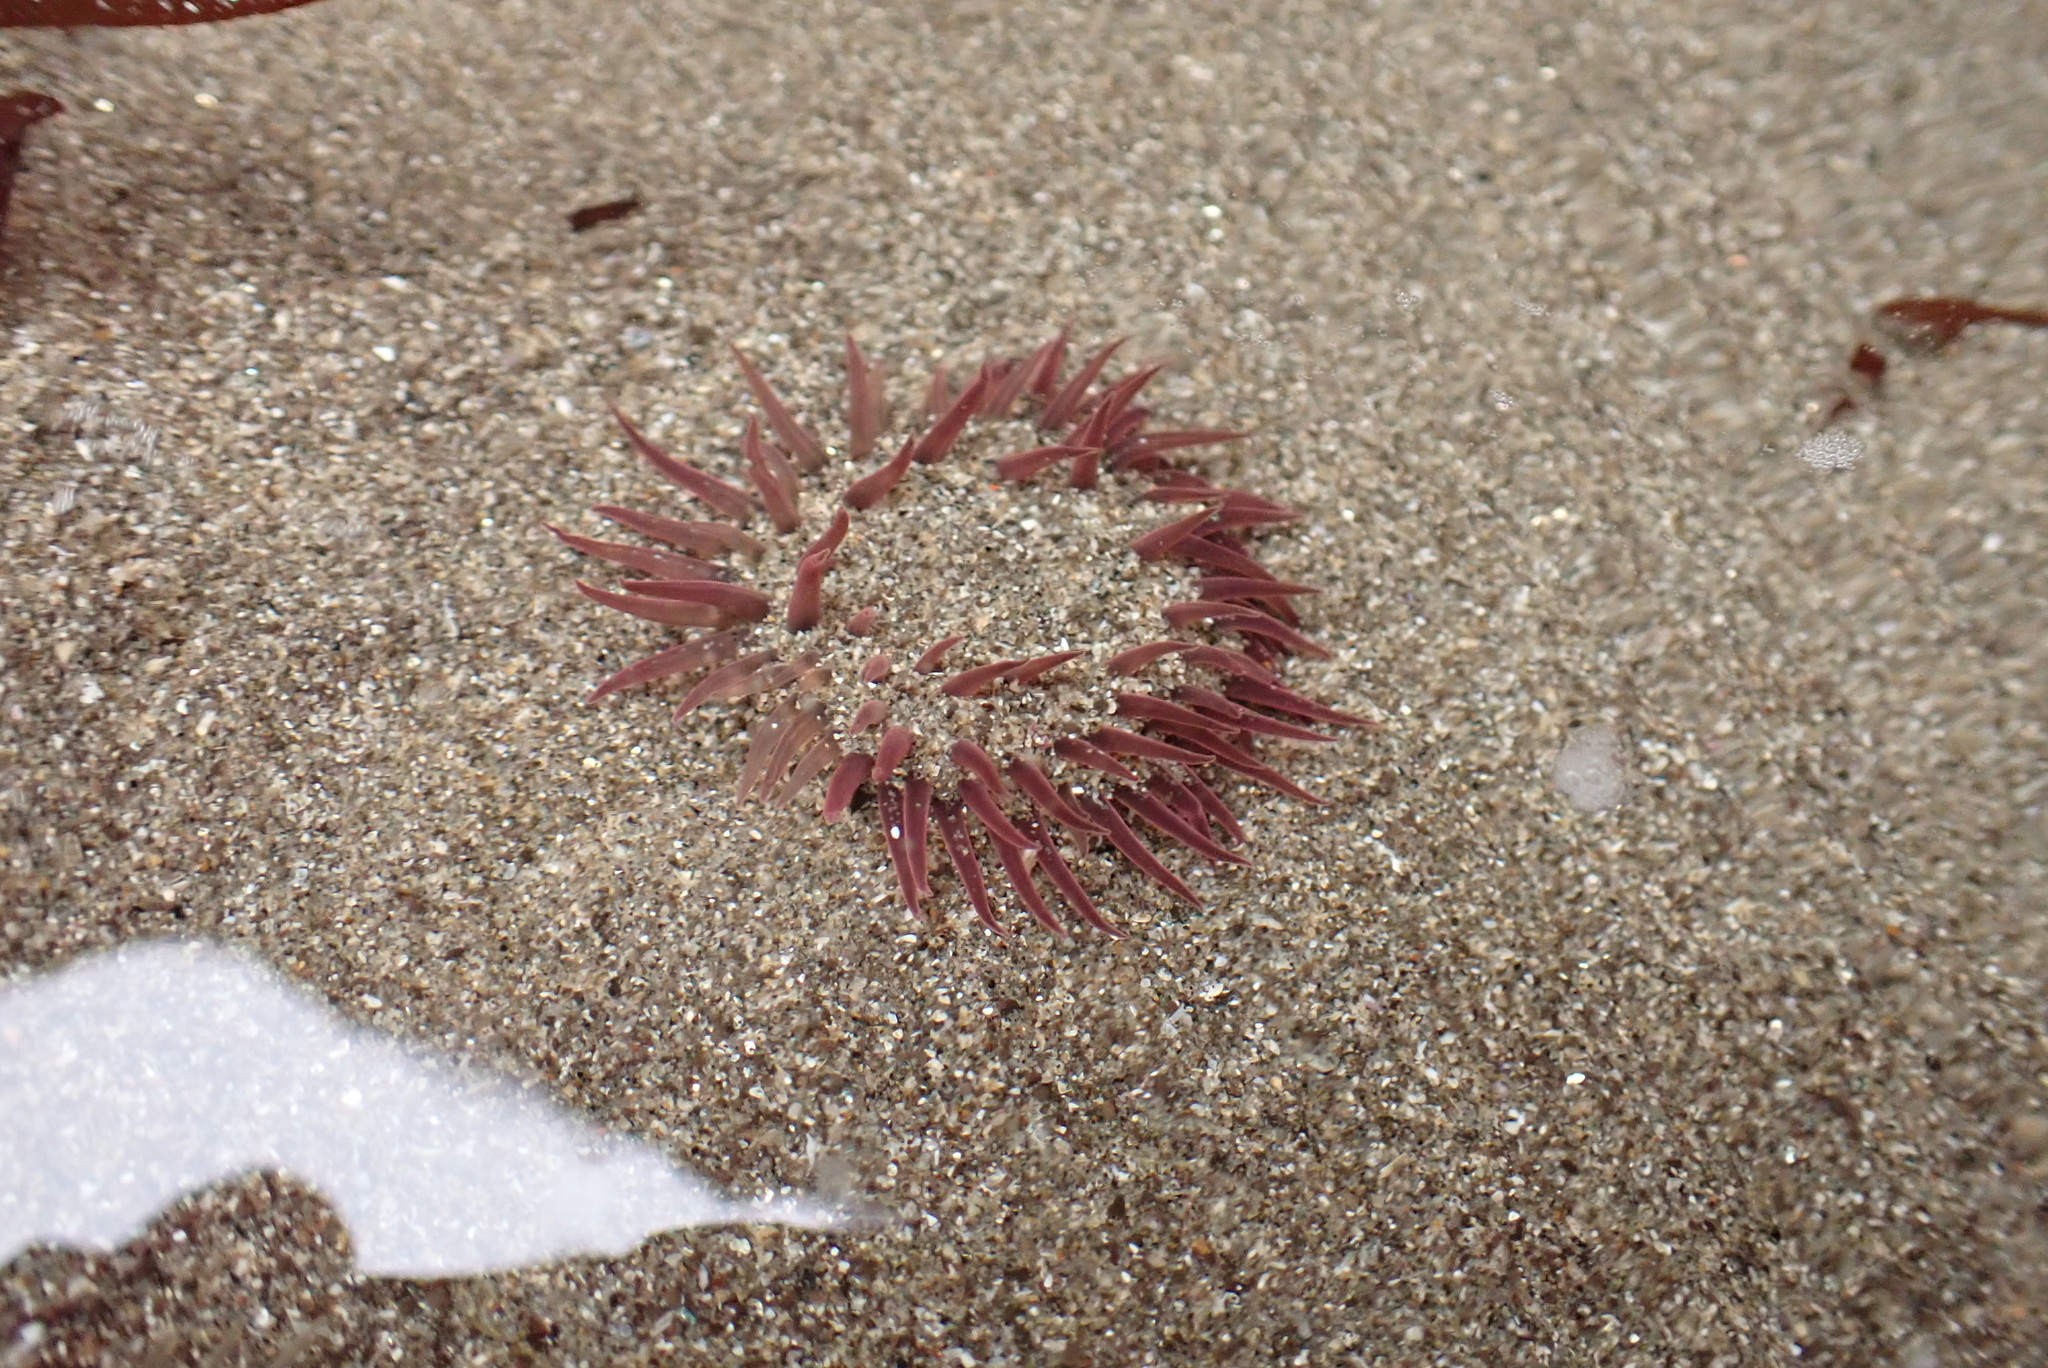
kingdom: Animalia
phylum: Cnidaria
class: Anthozoa
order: Actiniaria
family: Actiniidae
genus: Anthopleura
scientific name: Anthopleura artemisia
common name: Buried sea anemone
